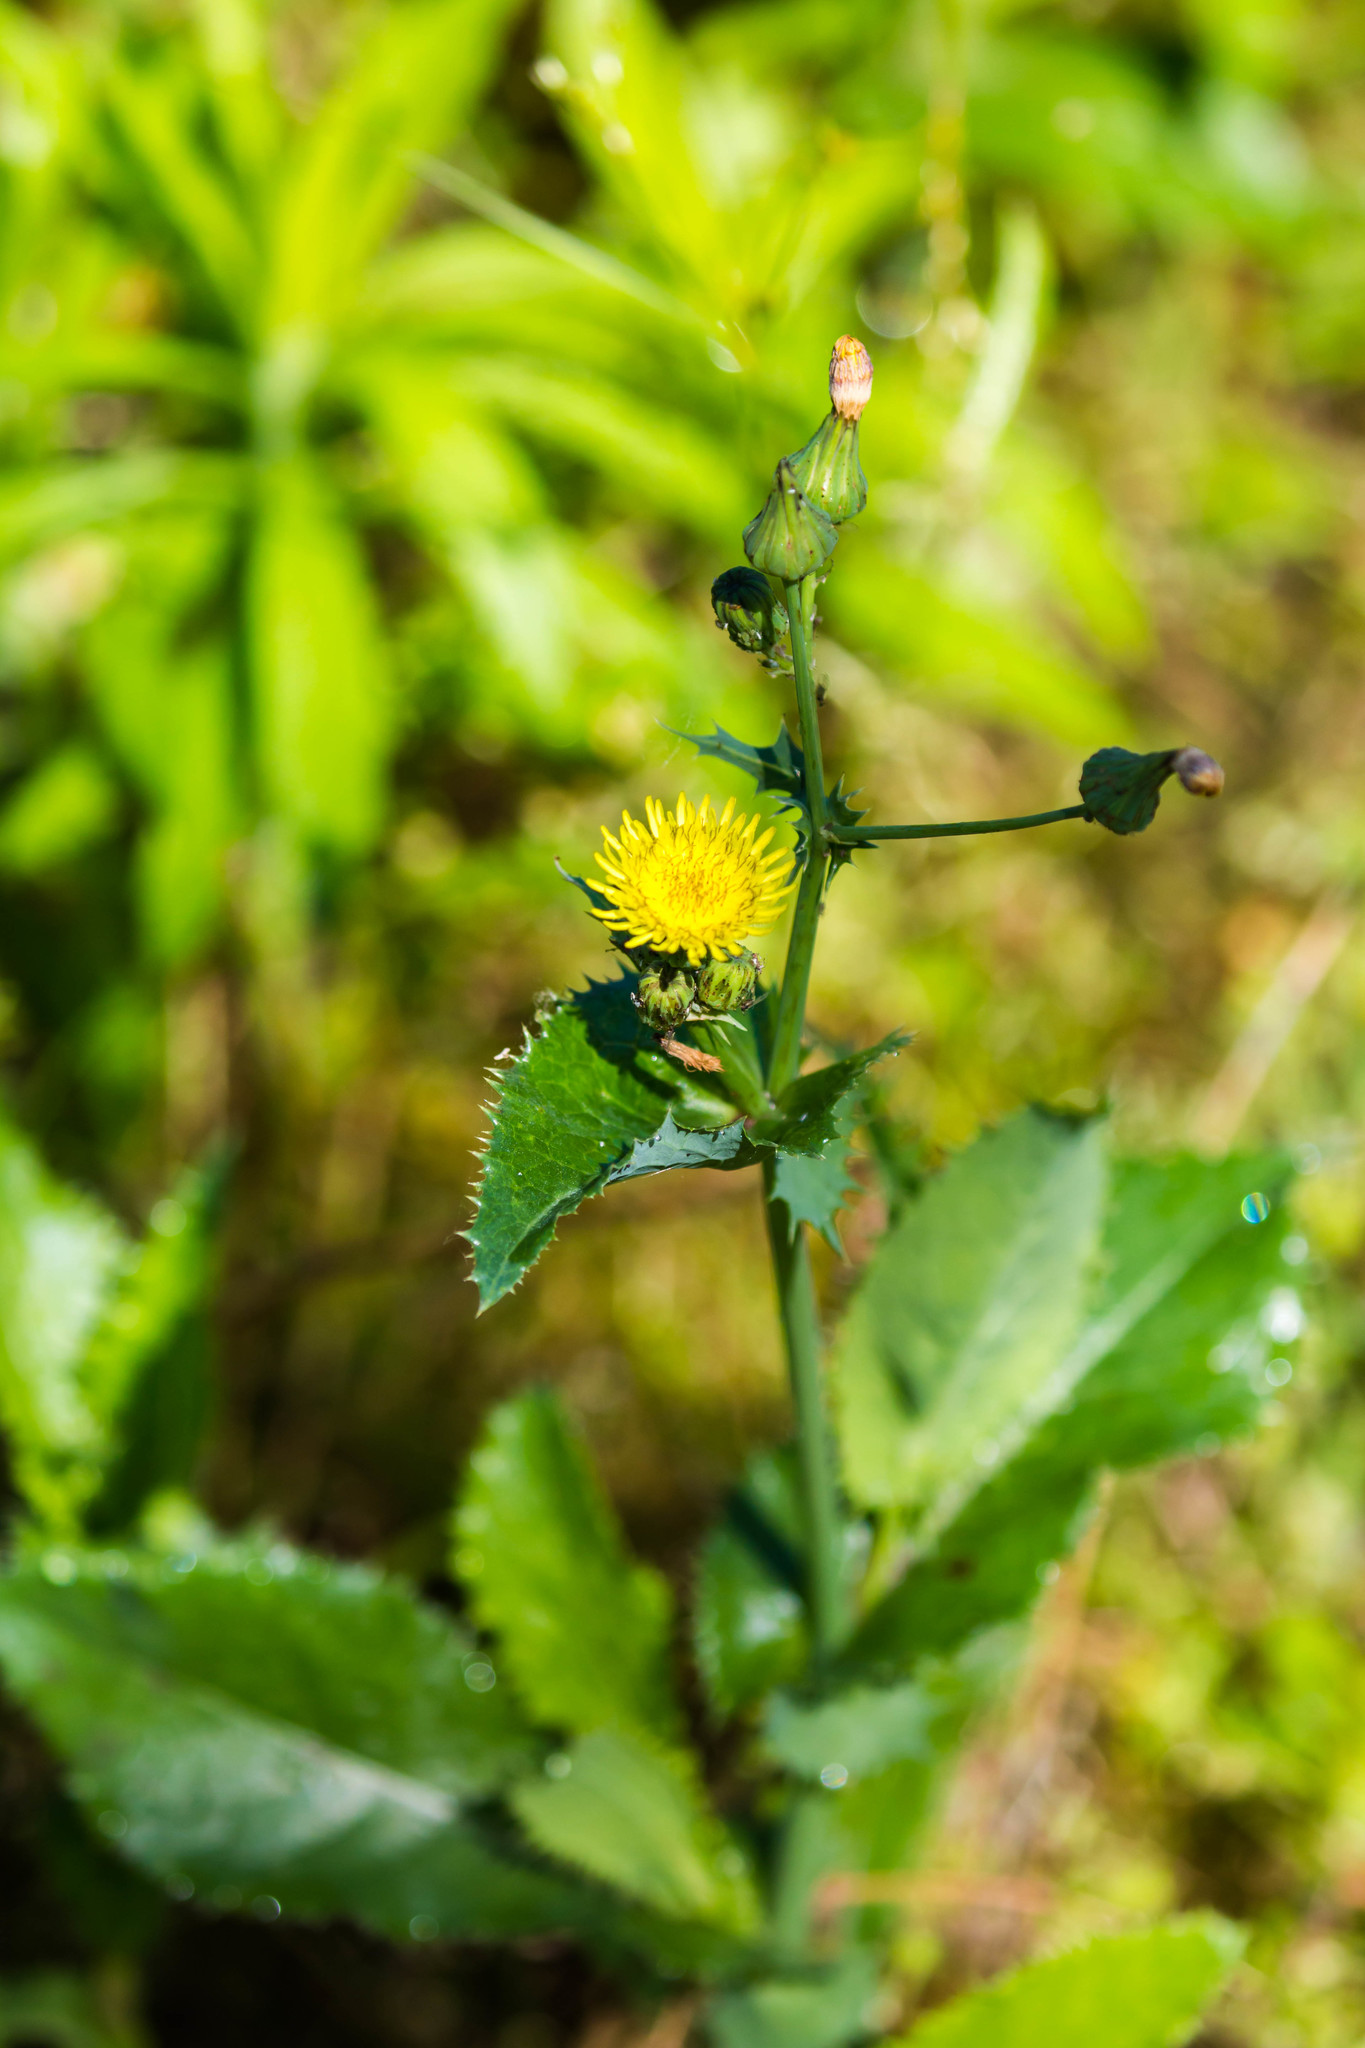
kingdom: Plantae
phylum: Tracheophyta
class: Magnoliopsida
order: Asterales
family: Asteraceae
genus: Sonchus
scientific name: Sonchus asper
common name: Prickly sow-thistle
